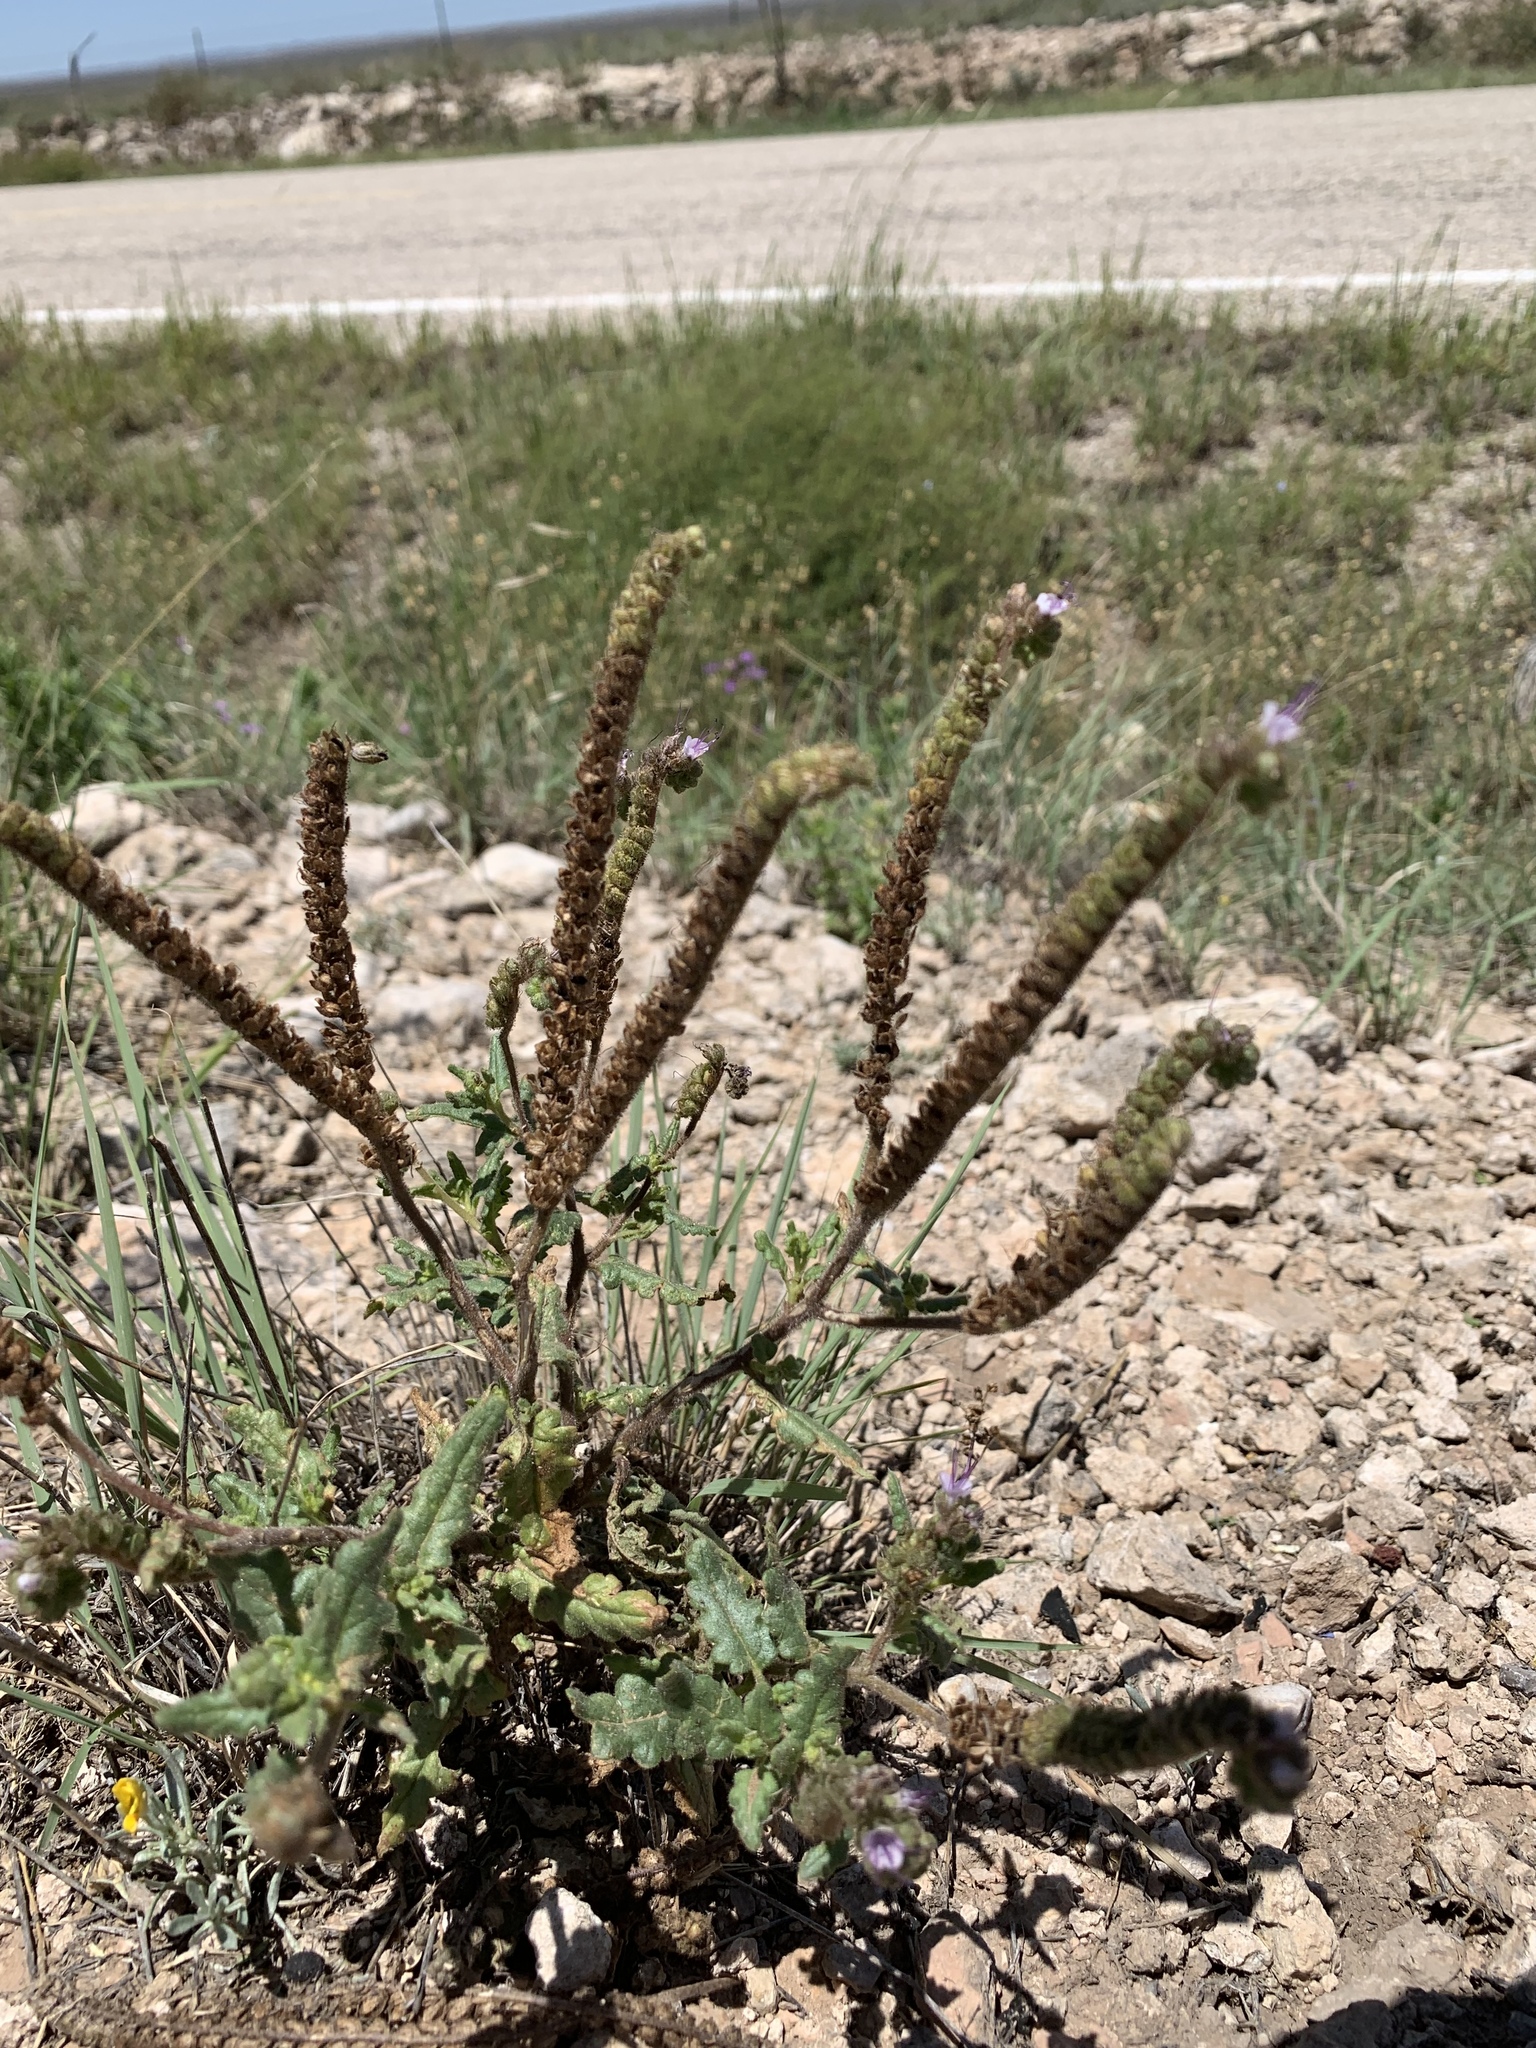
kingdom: Plantae
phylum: Tracheophyta
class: Magnoliopsida
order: Boraginales
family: Hydrophyllaceae
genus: Phacelia
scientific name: Phacelia integrifolia
